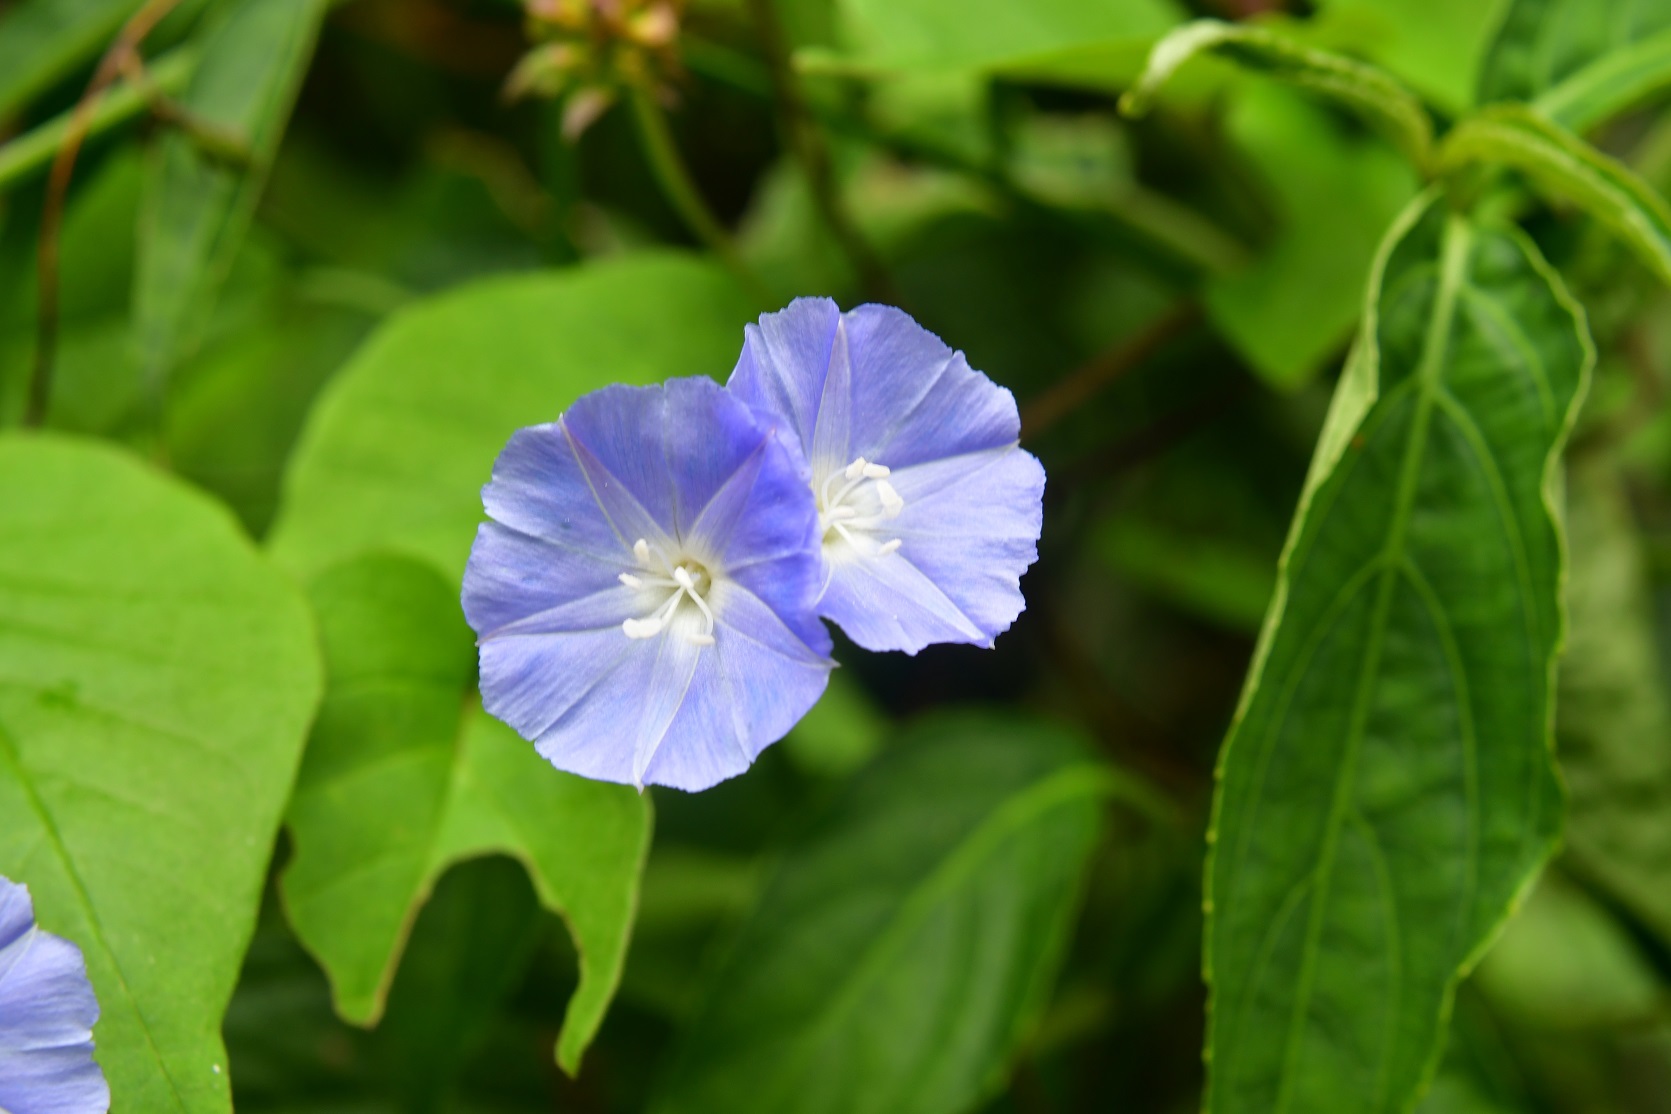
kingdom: Plantae
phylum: Tracheophyta
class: Magnoliopsida
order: Solanales
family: Convolvulaceae
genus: Jacquemontia
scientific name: Jacquemontia pentanthos
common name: Skyblue clustervine
